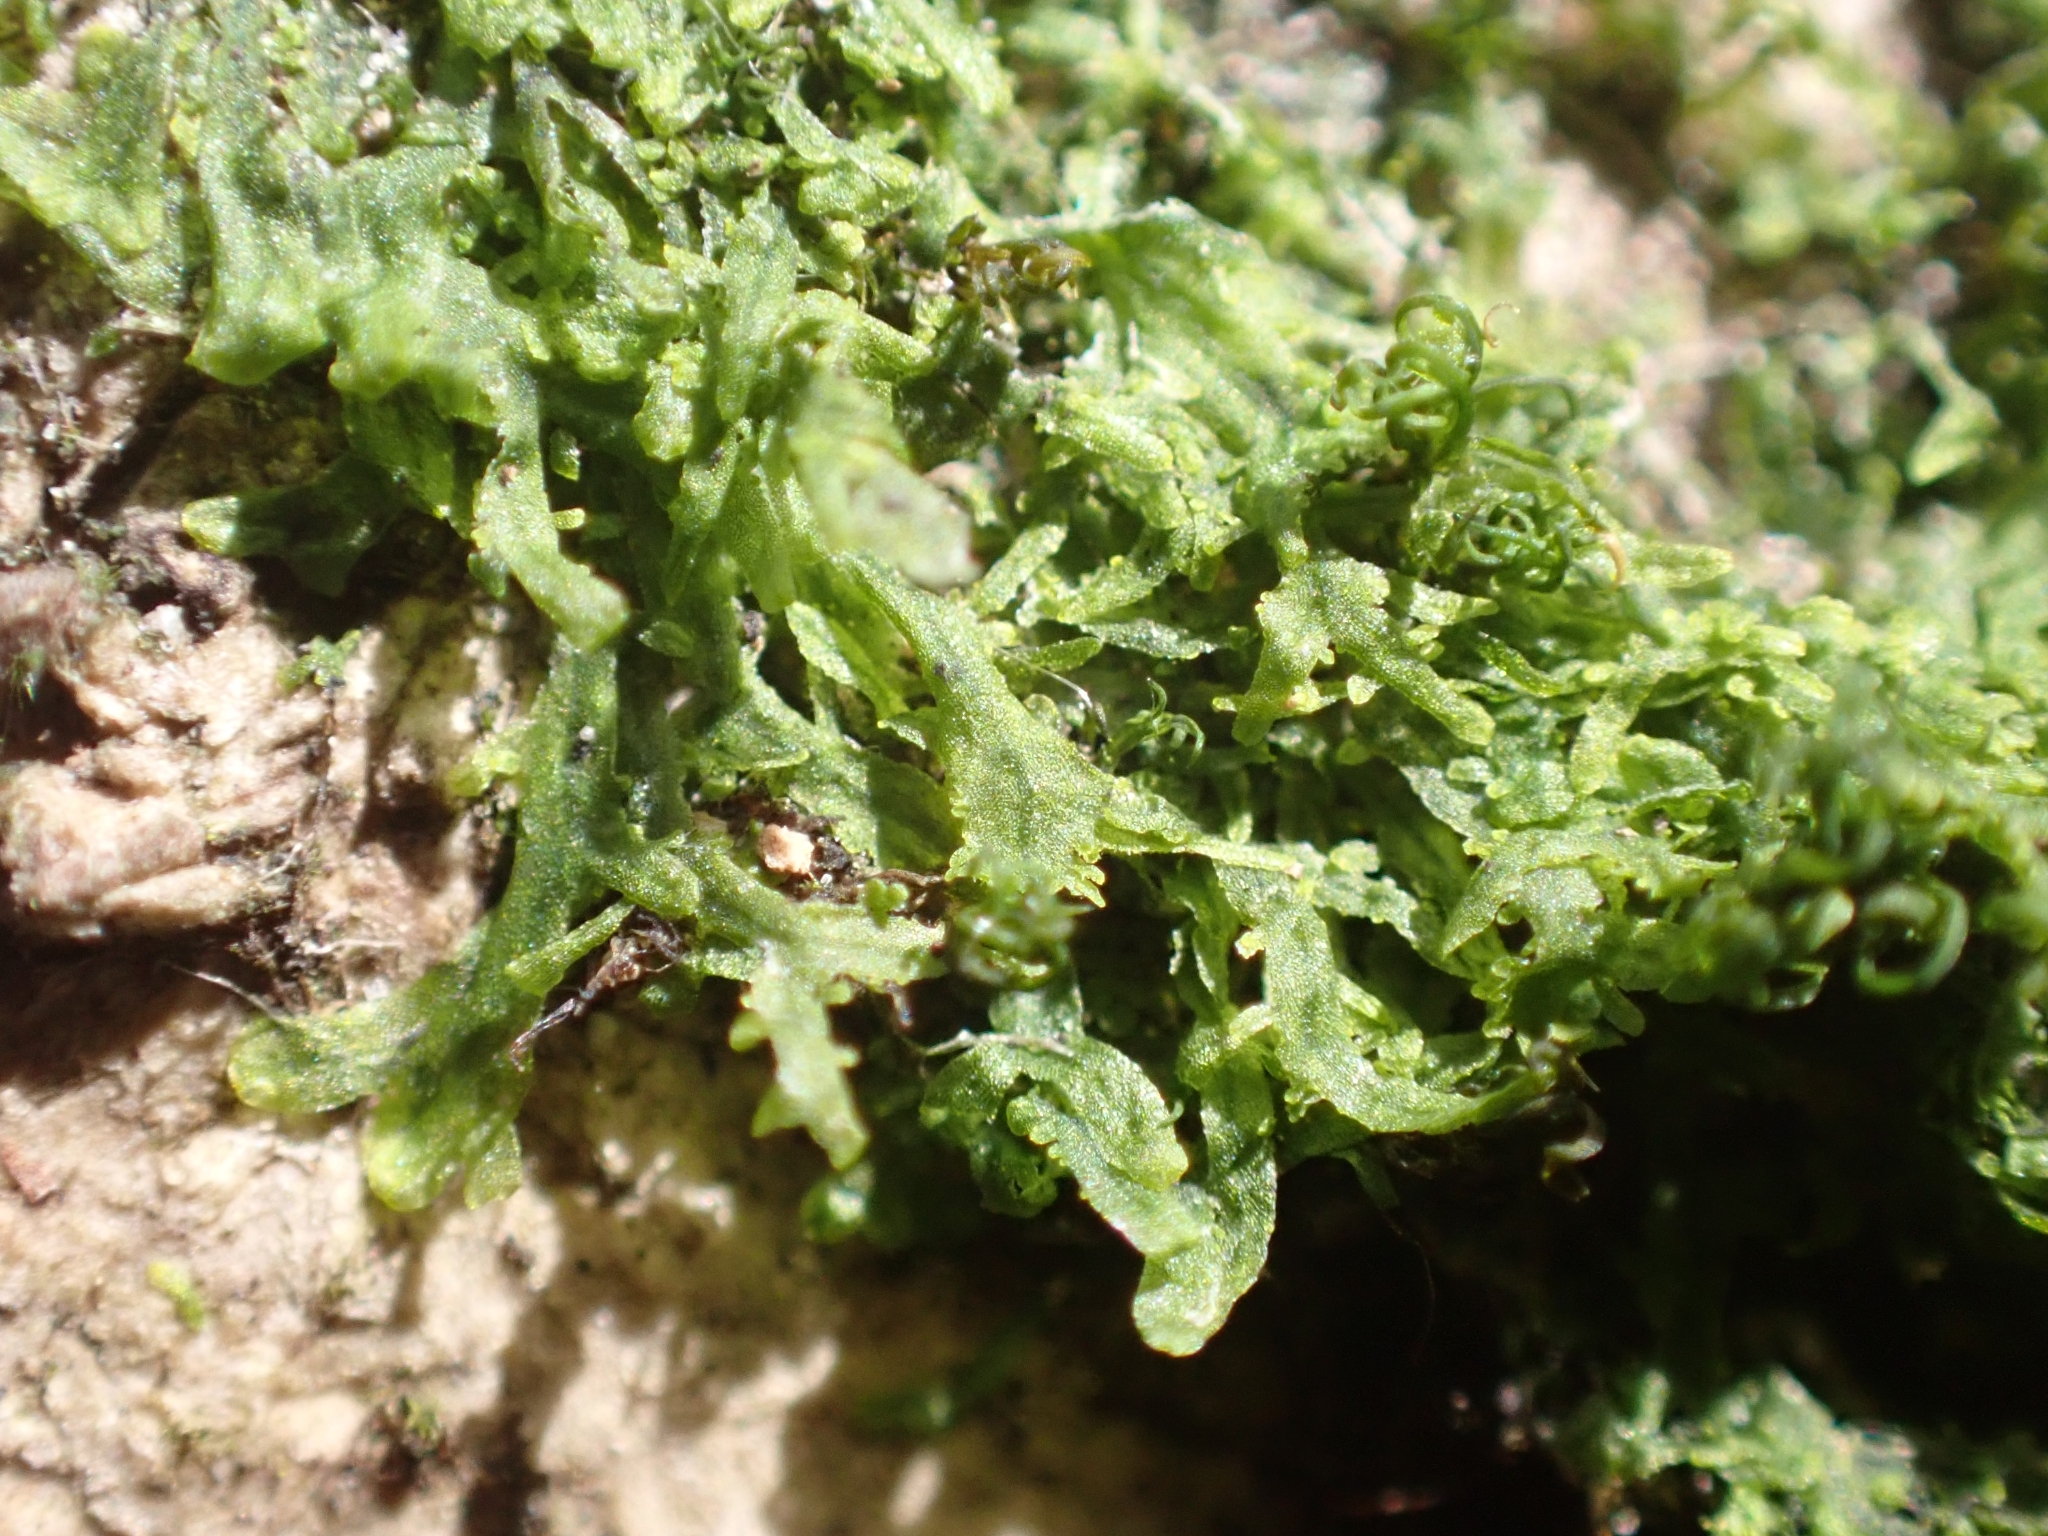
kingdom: Plantae
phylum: Marchantiophyta
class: Jungermanniopsida
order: Metzgeriales
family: Metzgeriaceae
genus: Metzgeria
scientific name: Metzgeria furcata
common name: Forked veilwort
